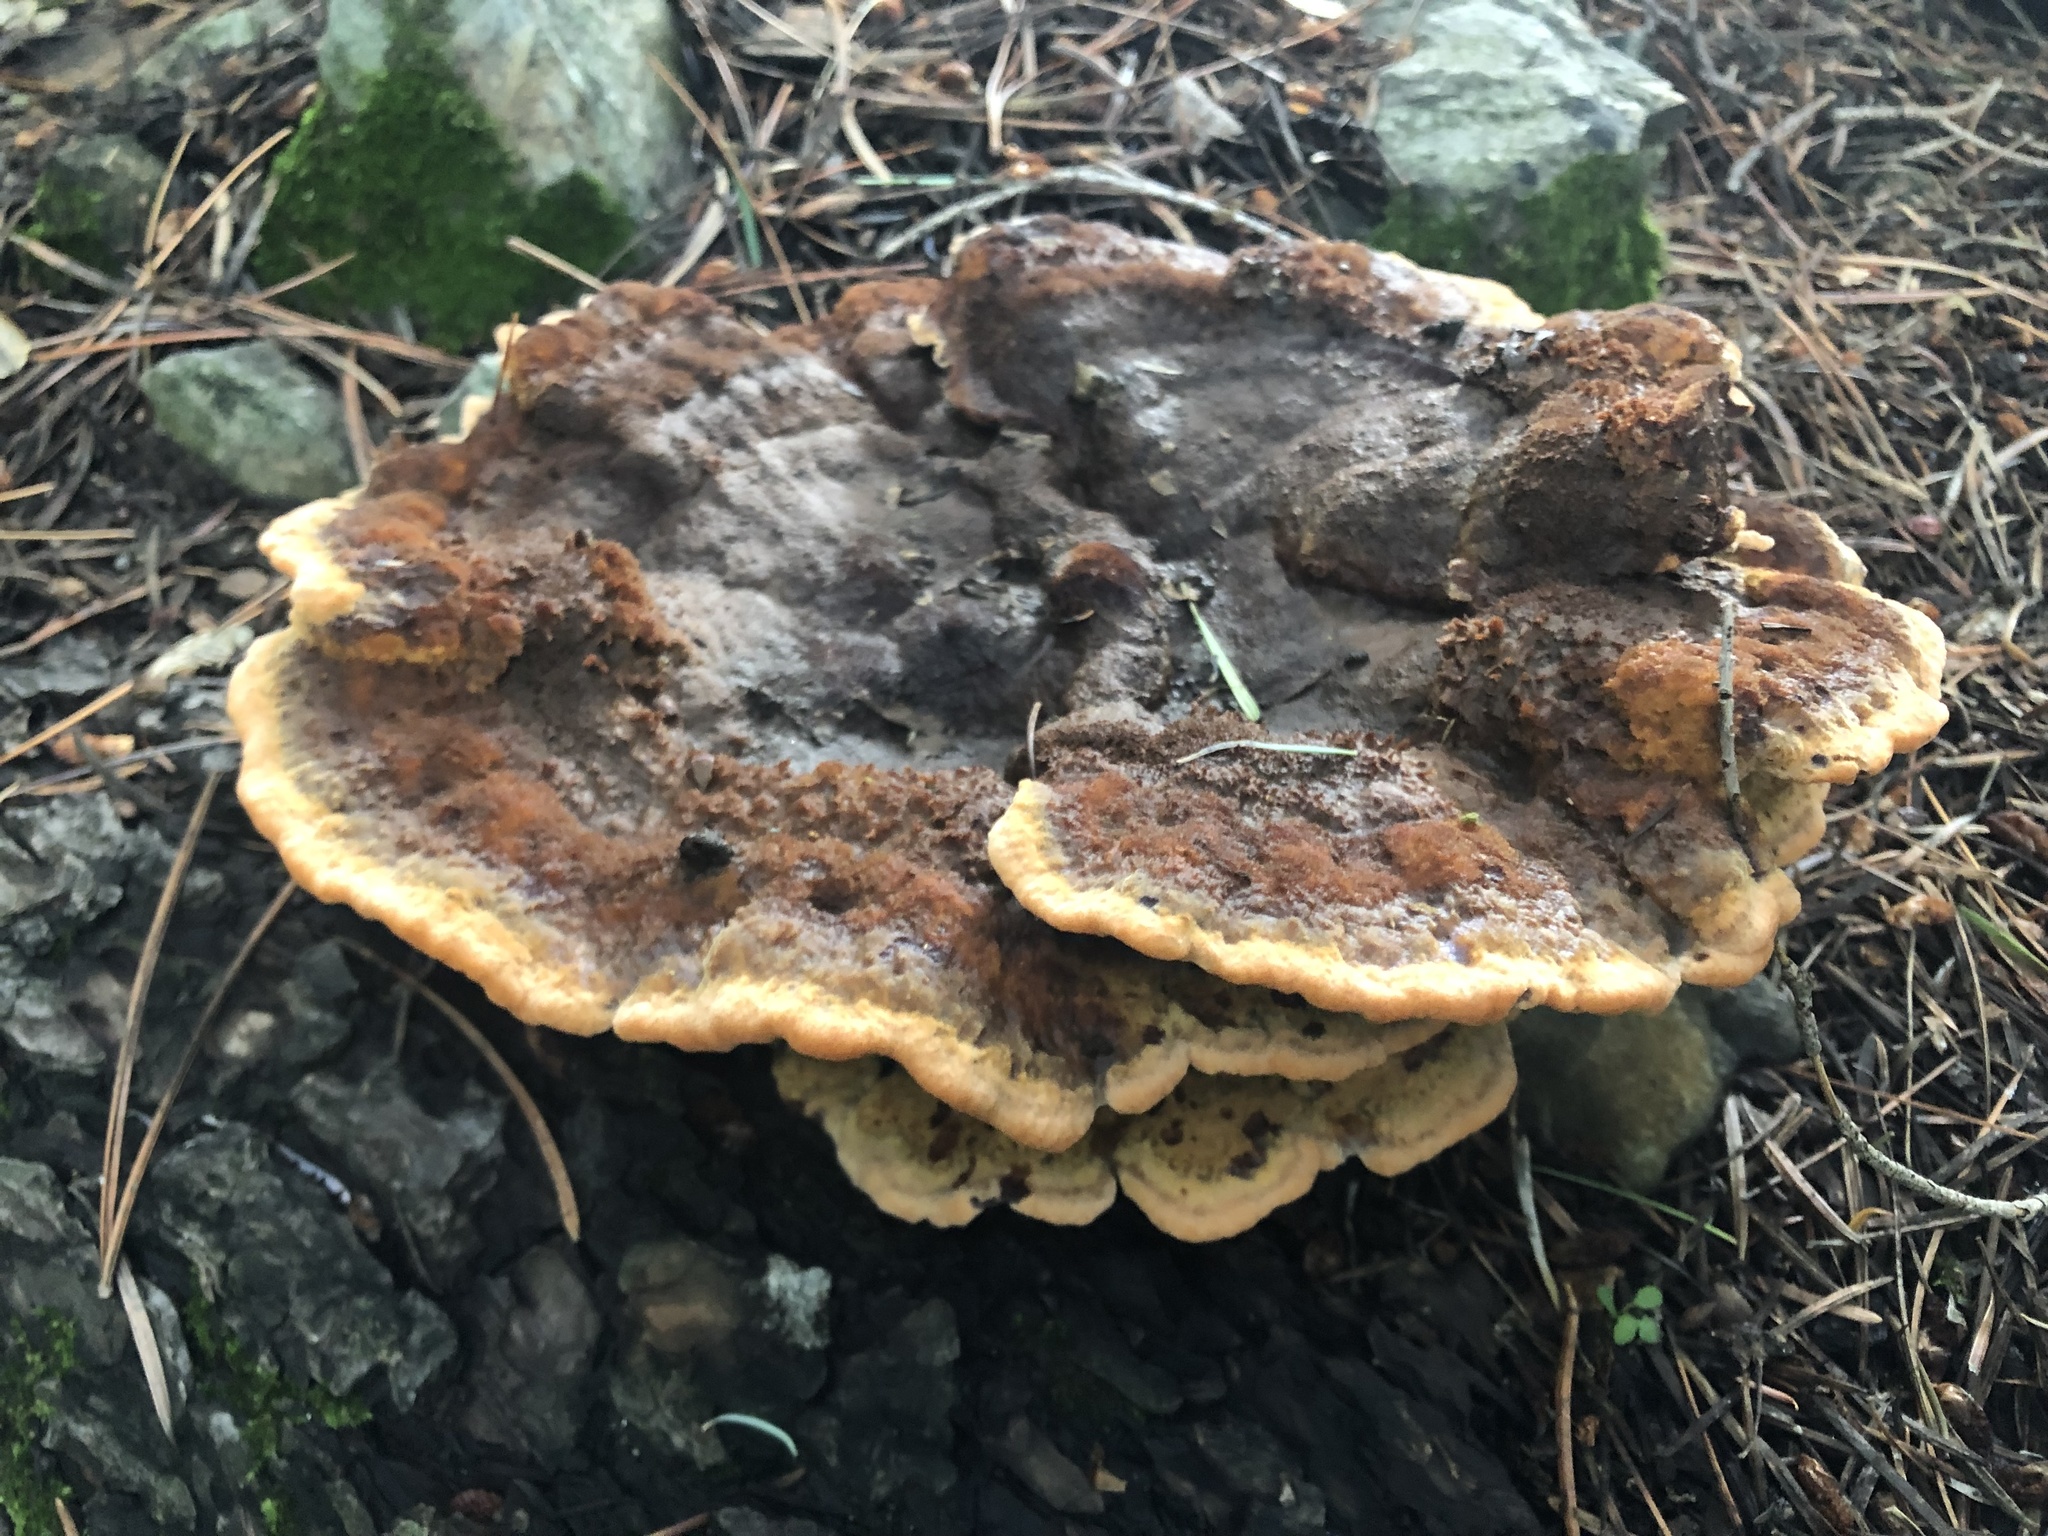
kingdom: Fungi
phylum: Basidiomycota
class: Agaricomycetes
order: Polyporales
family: Laetiporaceae
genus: Phaeolus
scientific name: Phaeolus schweinitzii
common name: Dyer's mazegill
